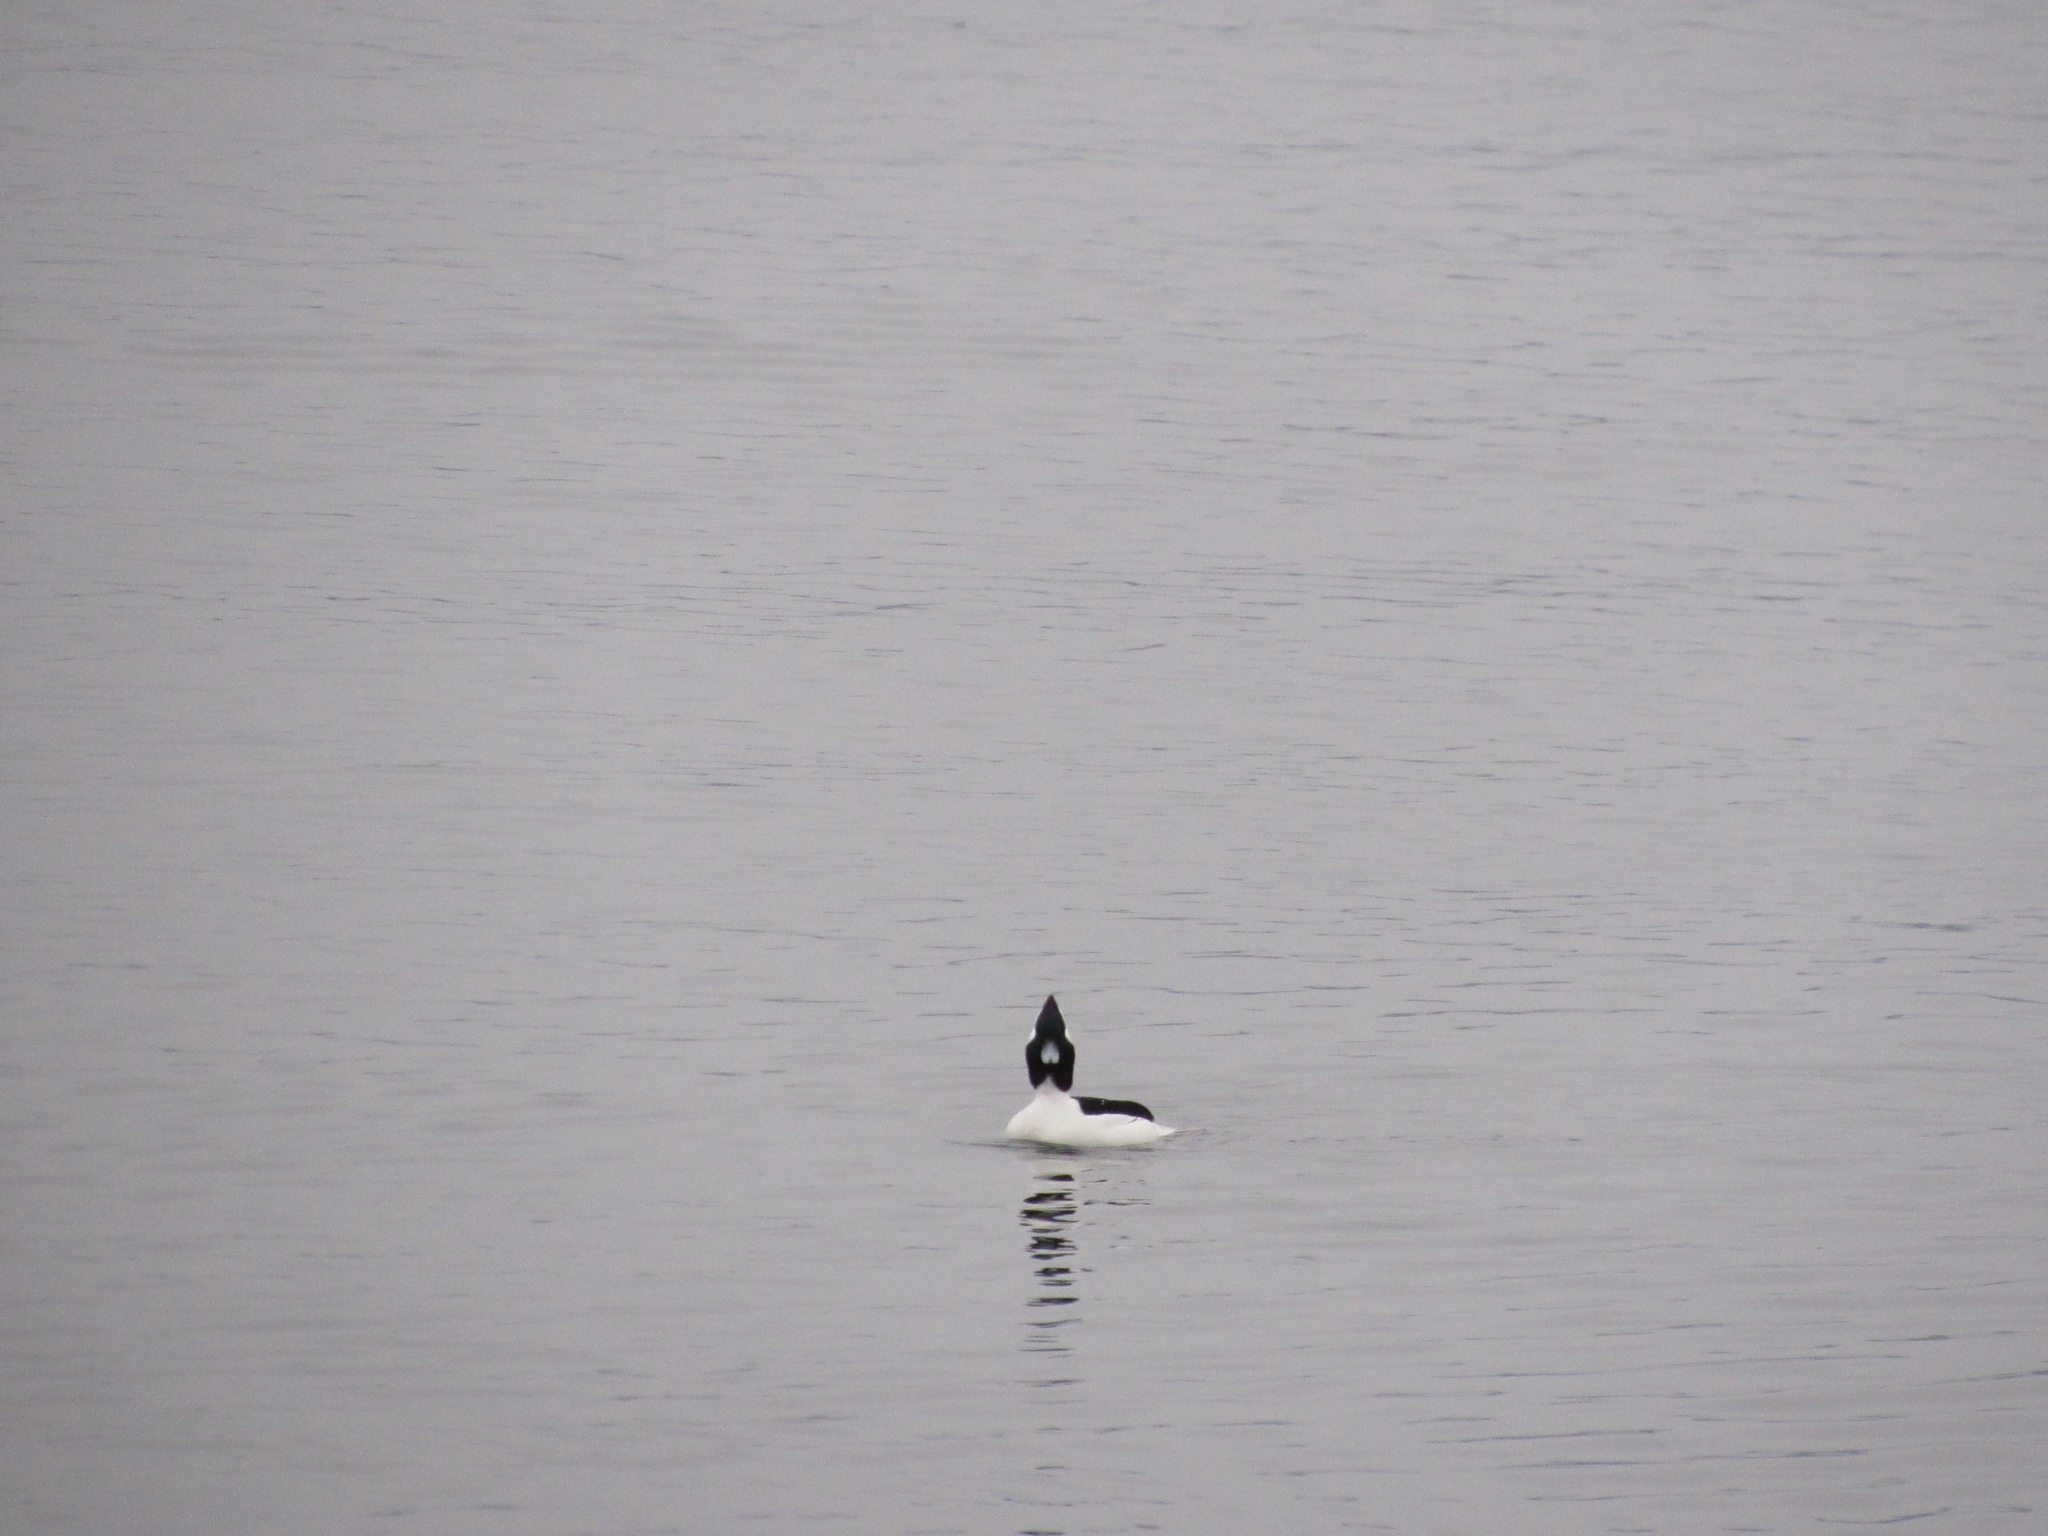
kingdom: Animalia
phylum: Chordata
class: Aves
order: Anseriformes
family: Anatidae
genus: Bucephala
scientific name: Bucephala albeola
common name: Bufflehead
